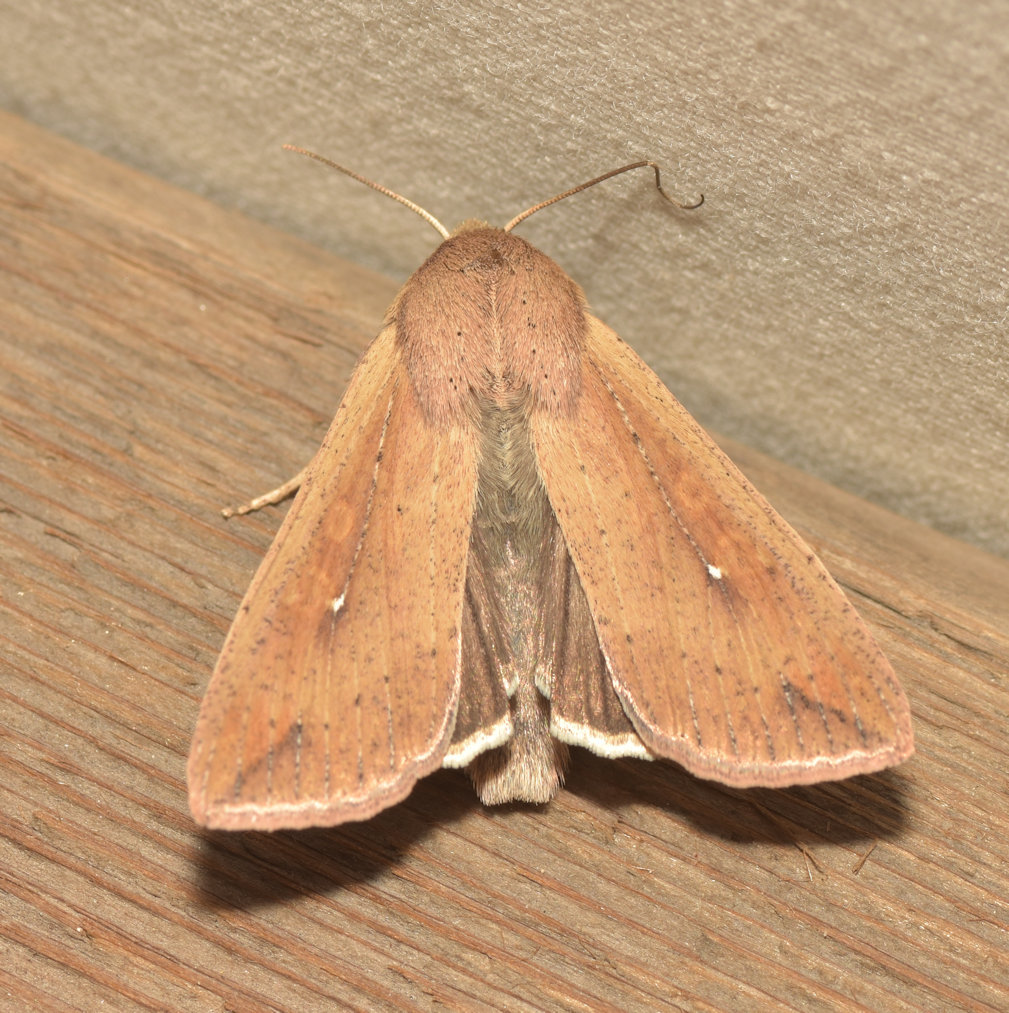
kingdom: Animalia
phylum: Arthropoda
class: Insecta
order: Lepidoptera
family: Noctuidae
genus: Mythimna
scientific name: Mythimna unipuncta
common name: White-speck
